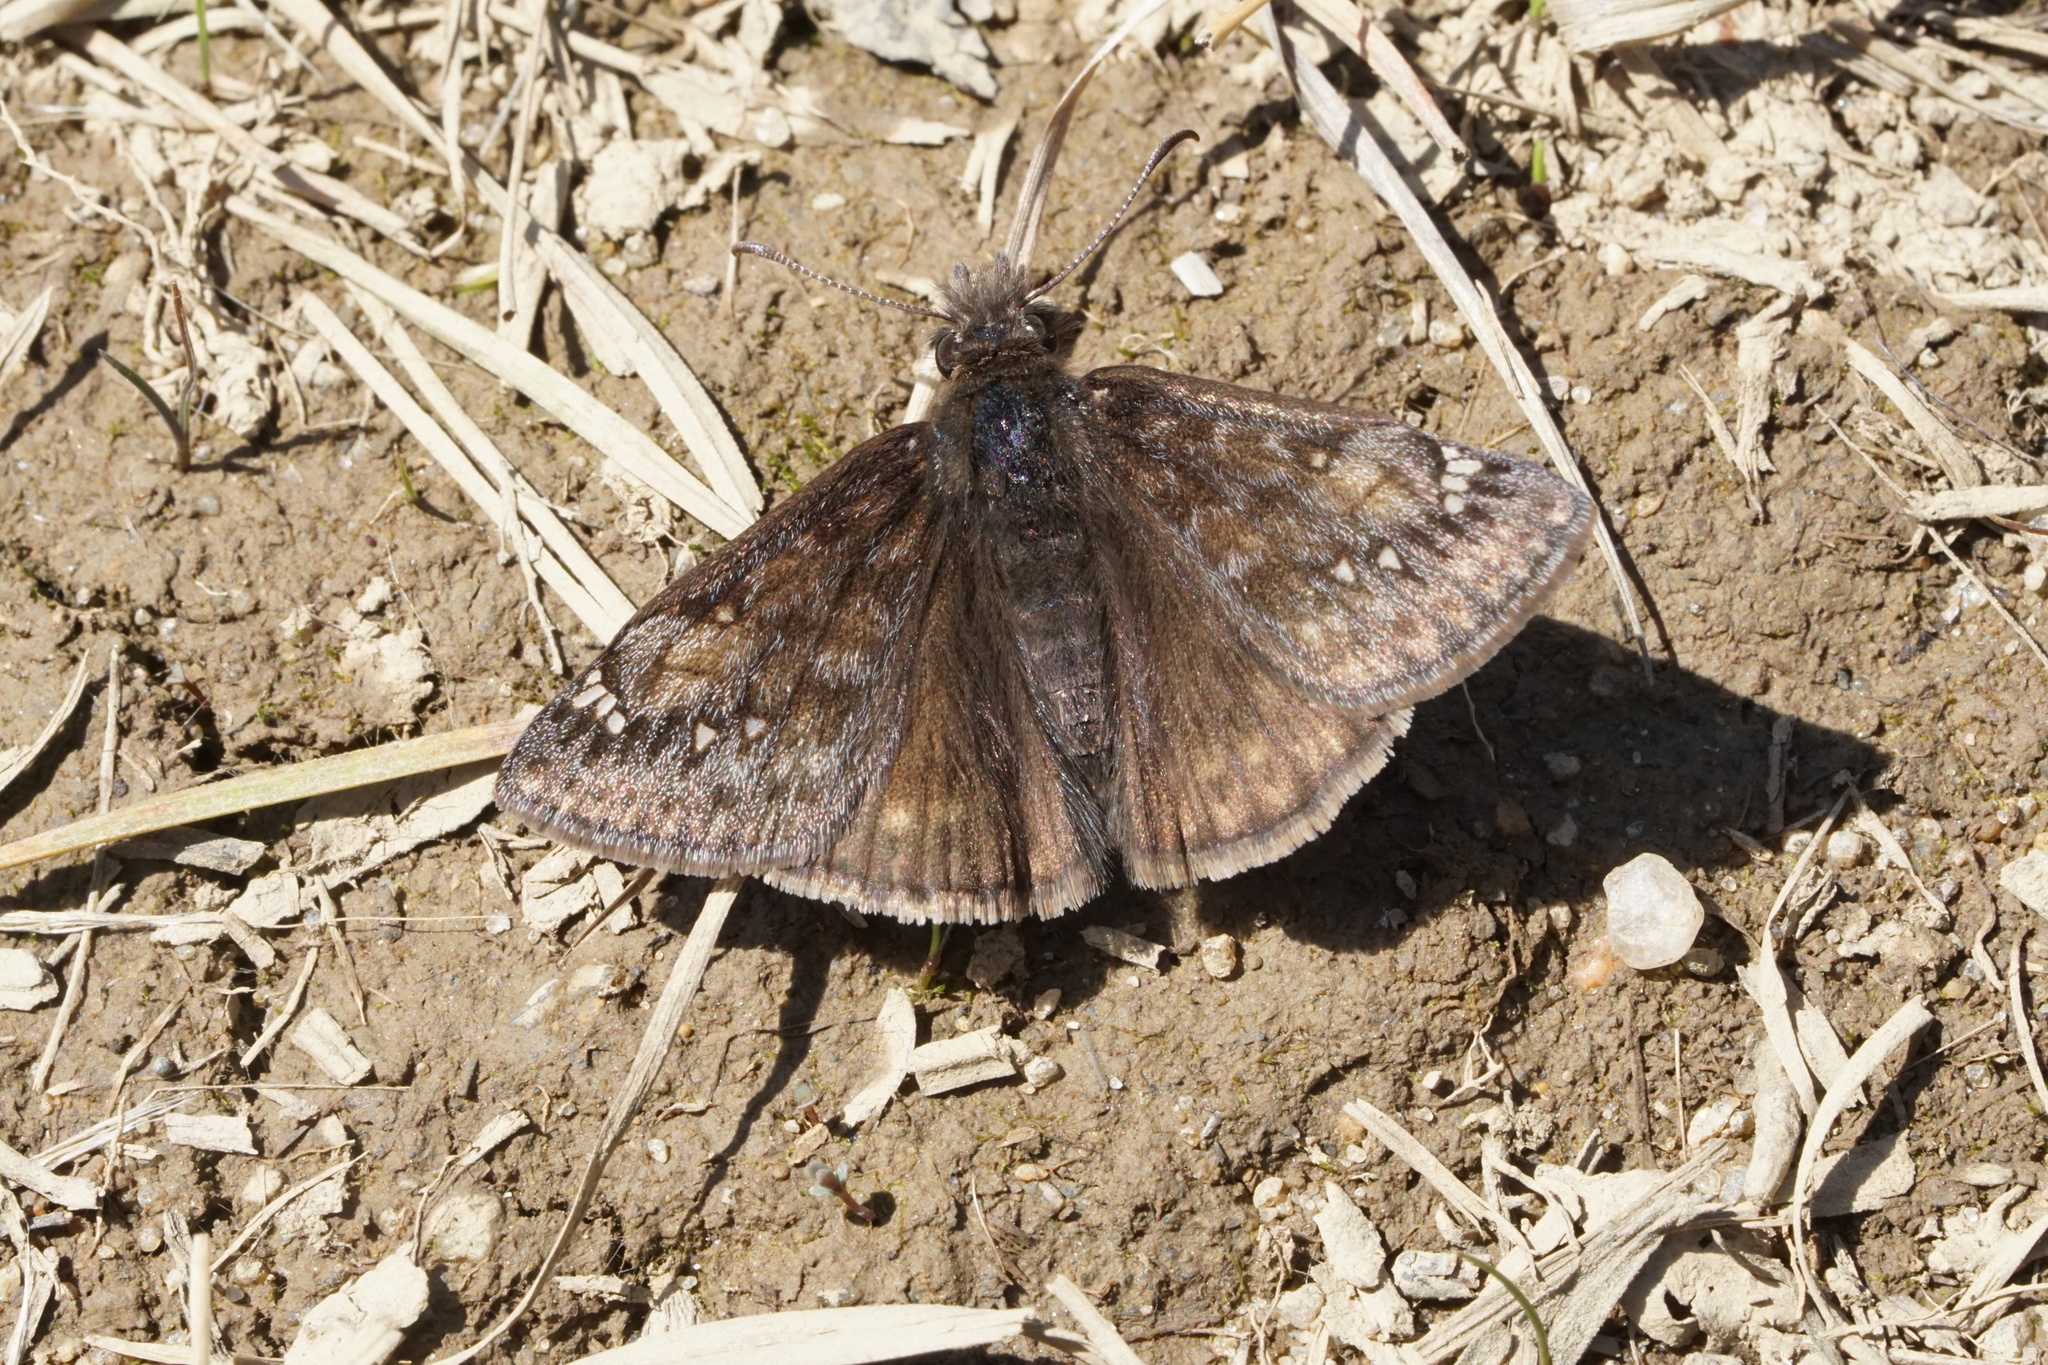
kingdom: Animalia
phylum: Arthropoda
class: Insecta
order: Lepidoptera
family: Hesperiidae
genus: Erynnis
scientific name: Erynnis juvenalis
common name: Juvenal's duskywing
